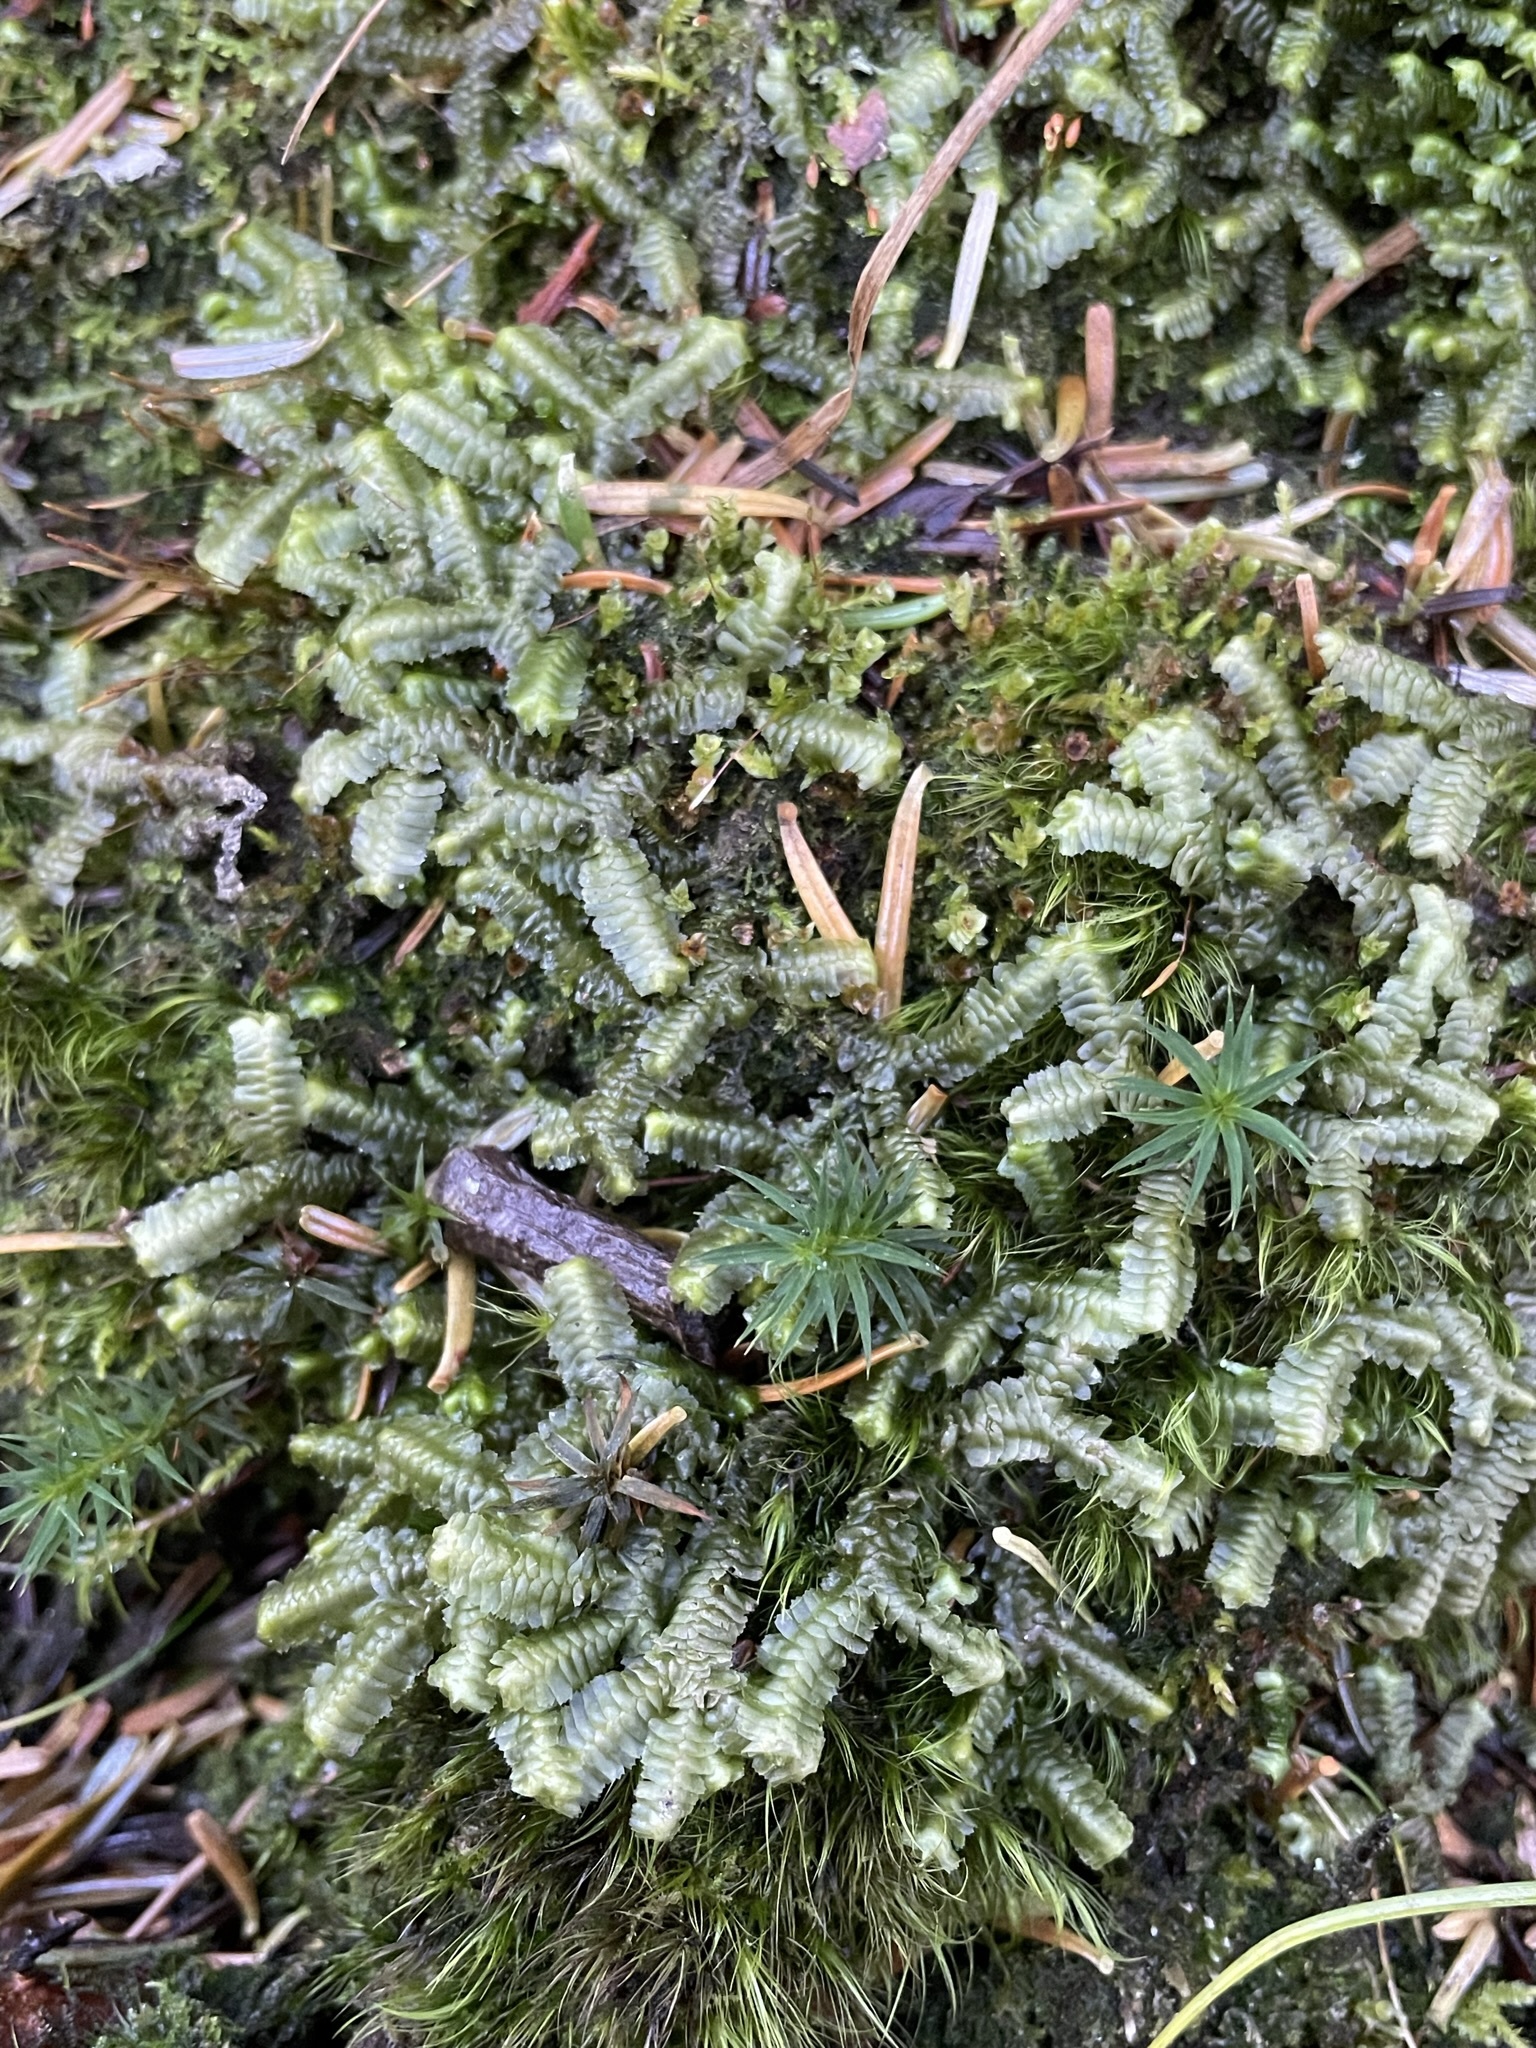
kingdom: Plantae
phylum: Marchantiophyta
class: Jungermanniopsida
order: Jungermanniales
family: Lepidoziaceae
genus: Bazzania
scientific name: Bazzania trilobata
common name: Three-lobed whipwort
